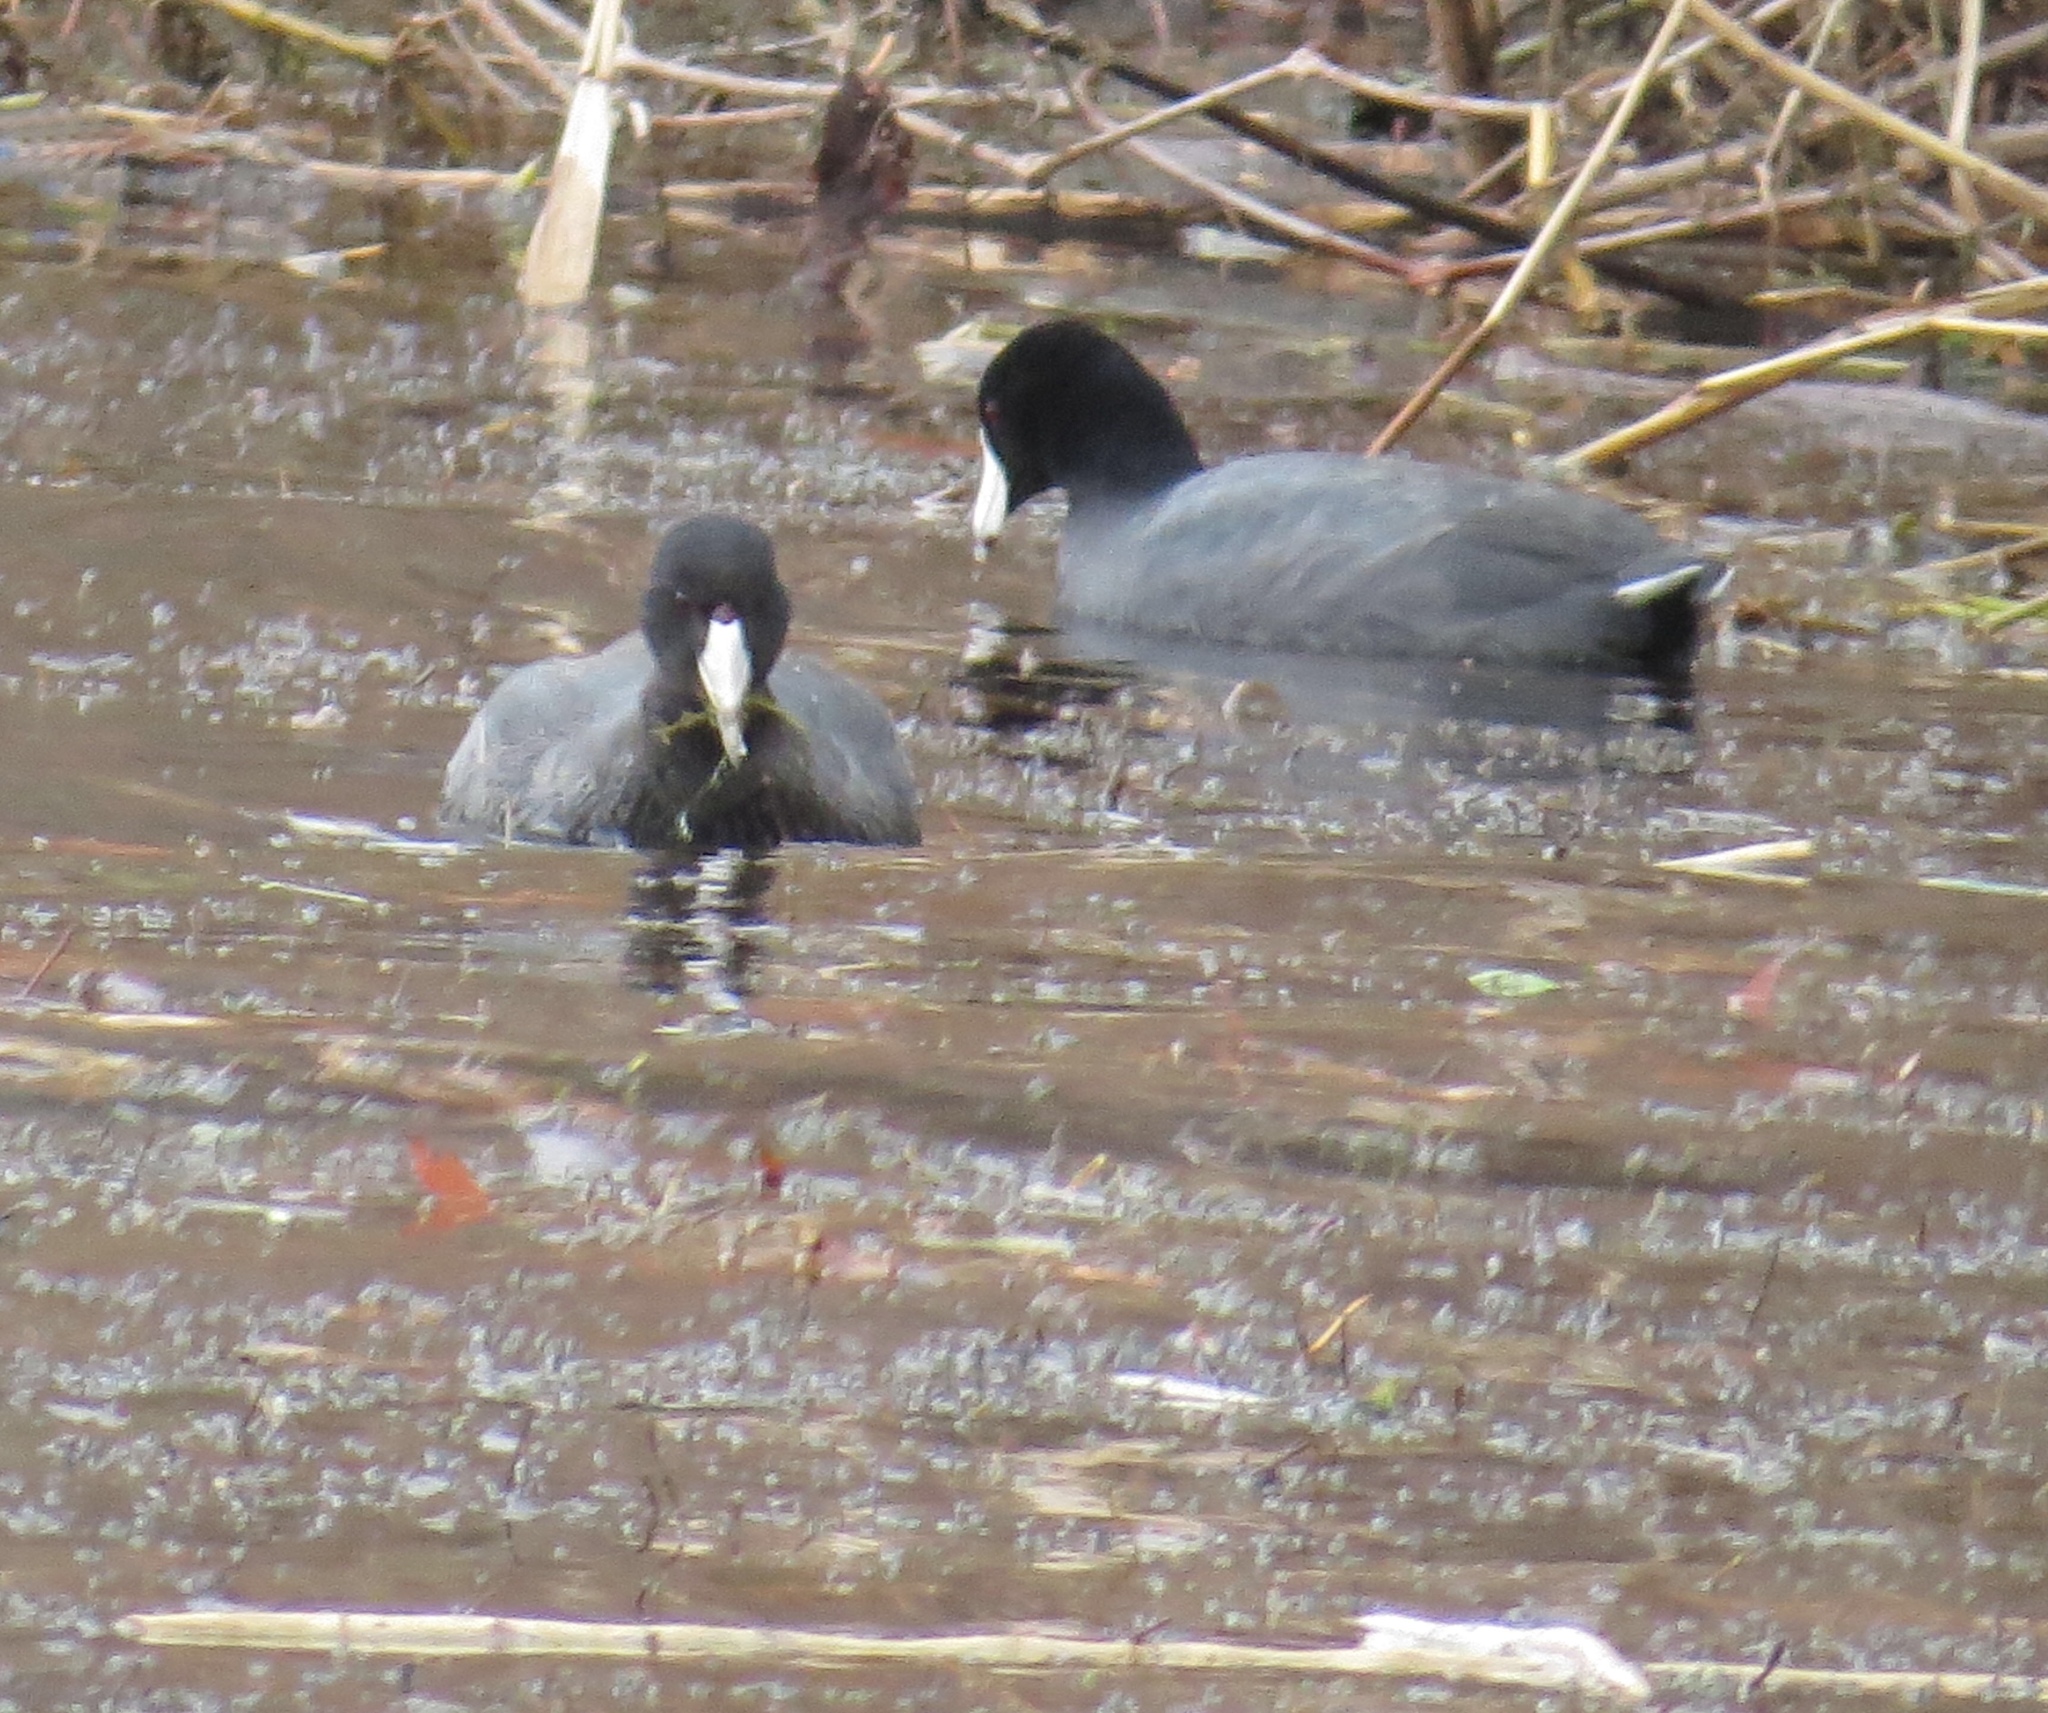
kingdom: Animalia
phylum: Chordata
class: Aves
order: Gruiformes
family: Rallidae
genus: Fulica
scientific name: Fulica americana
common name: American coot
